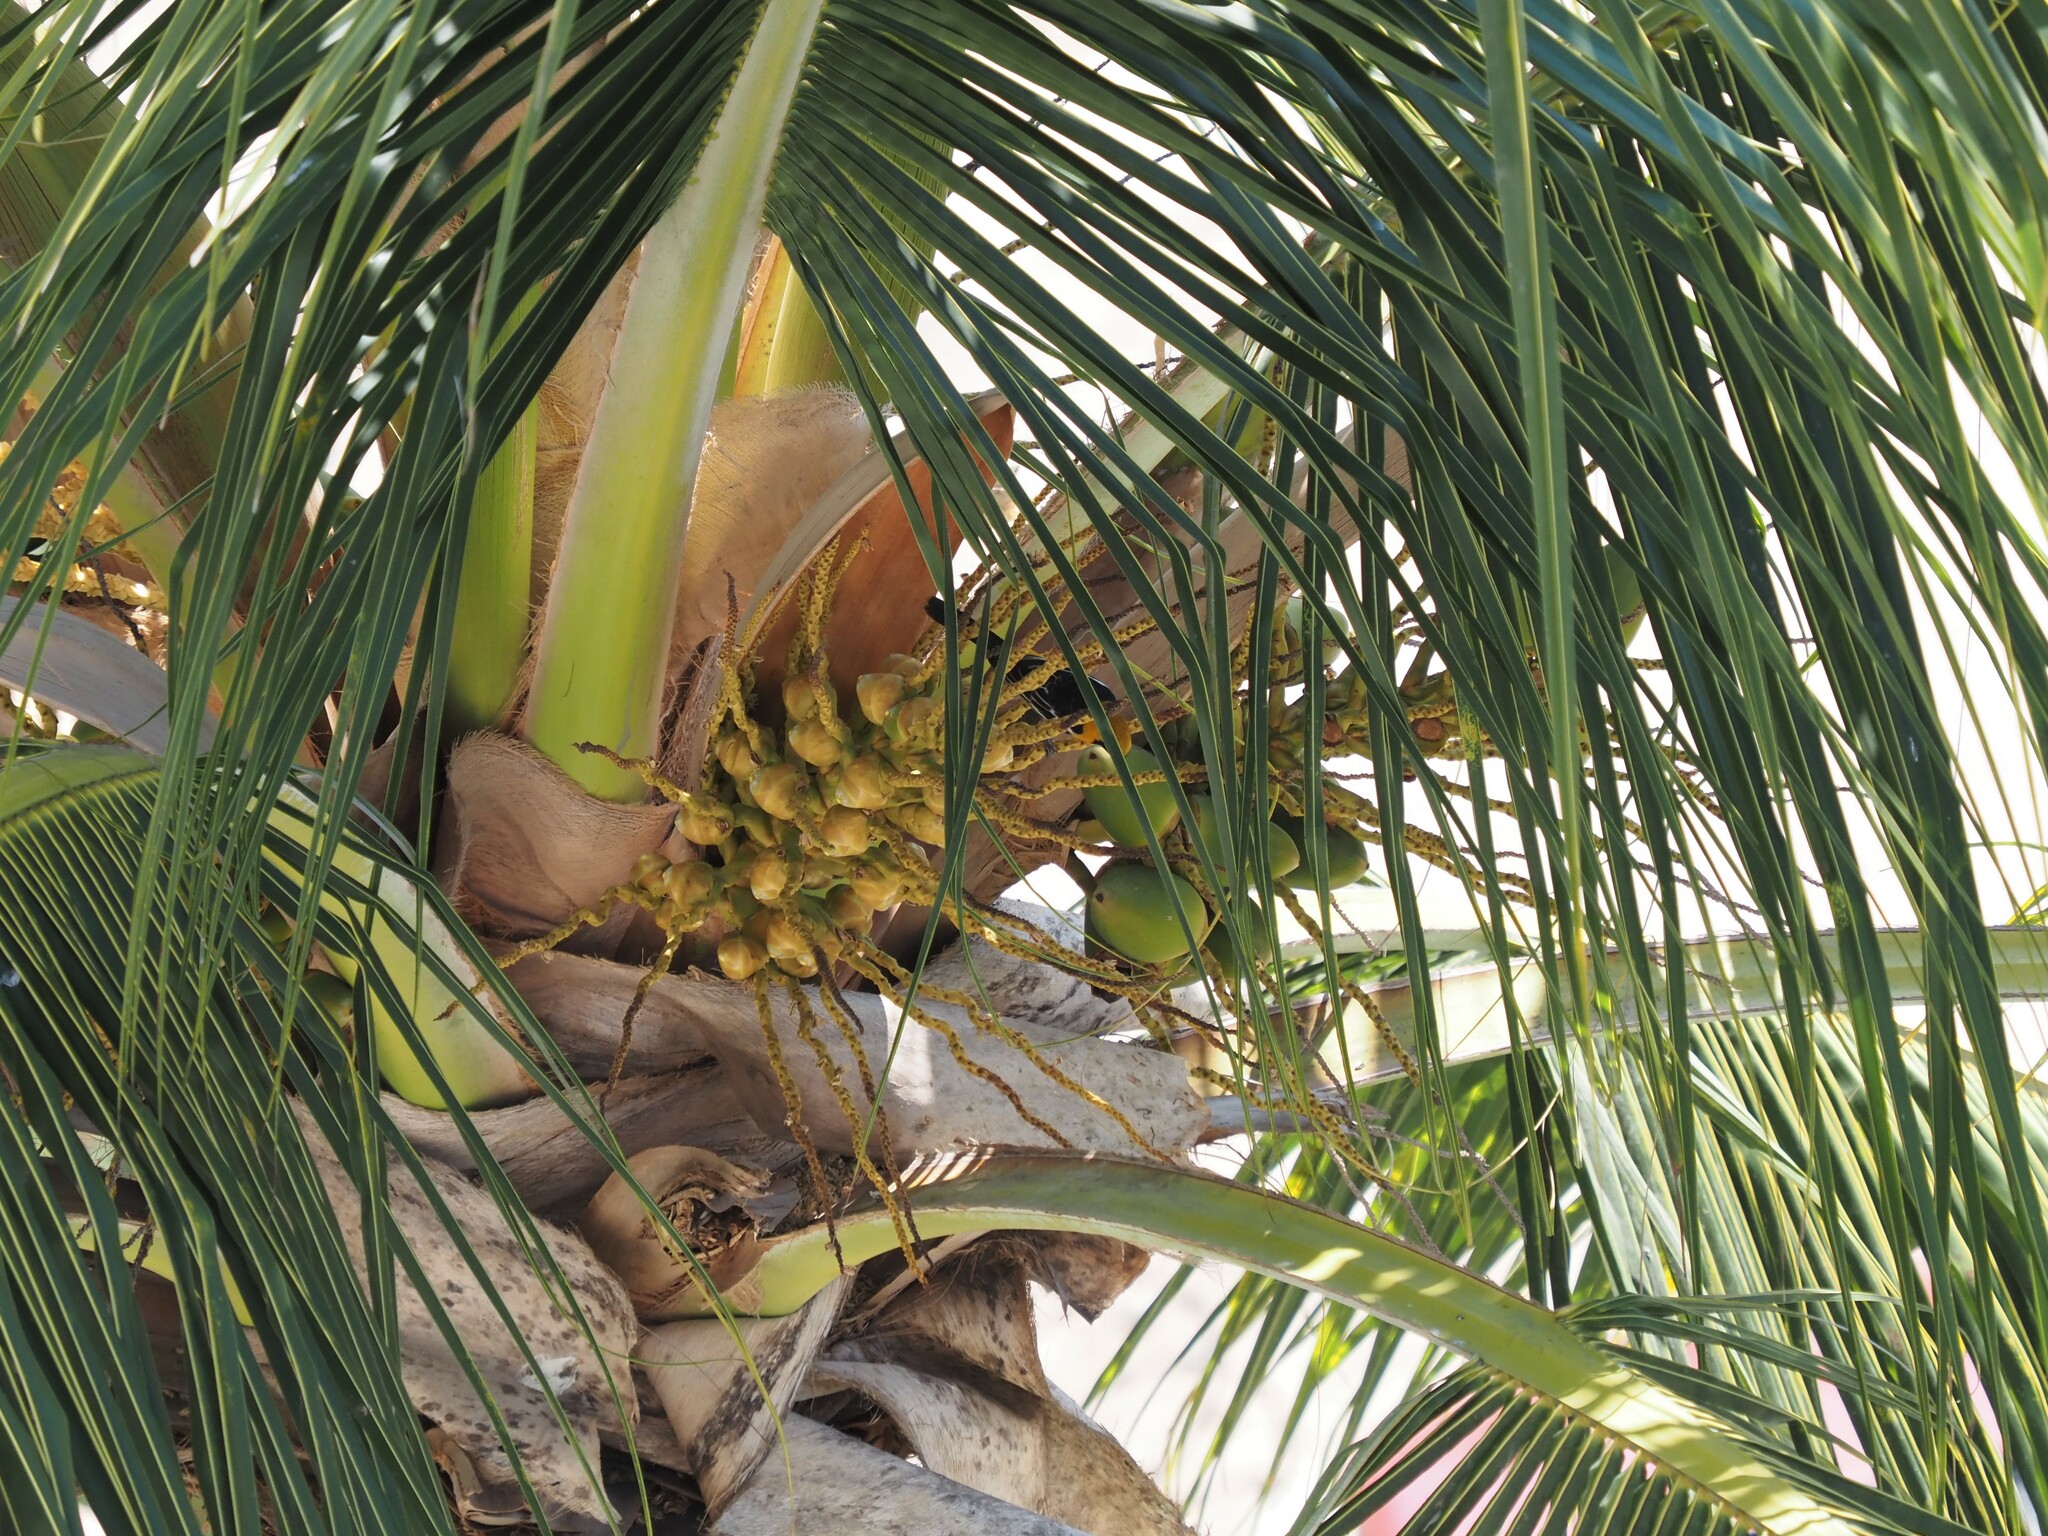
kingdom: Plantae
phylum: Tracheophyta
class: Liliopsida
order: Arecales
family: Arecaceae
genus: Cocos
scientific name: Cocos nucifera
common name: Coconut palm
